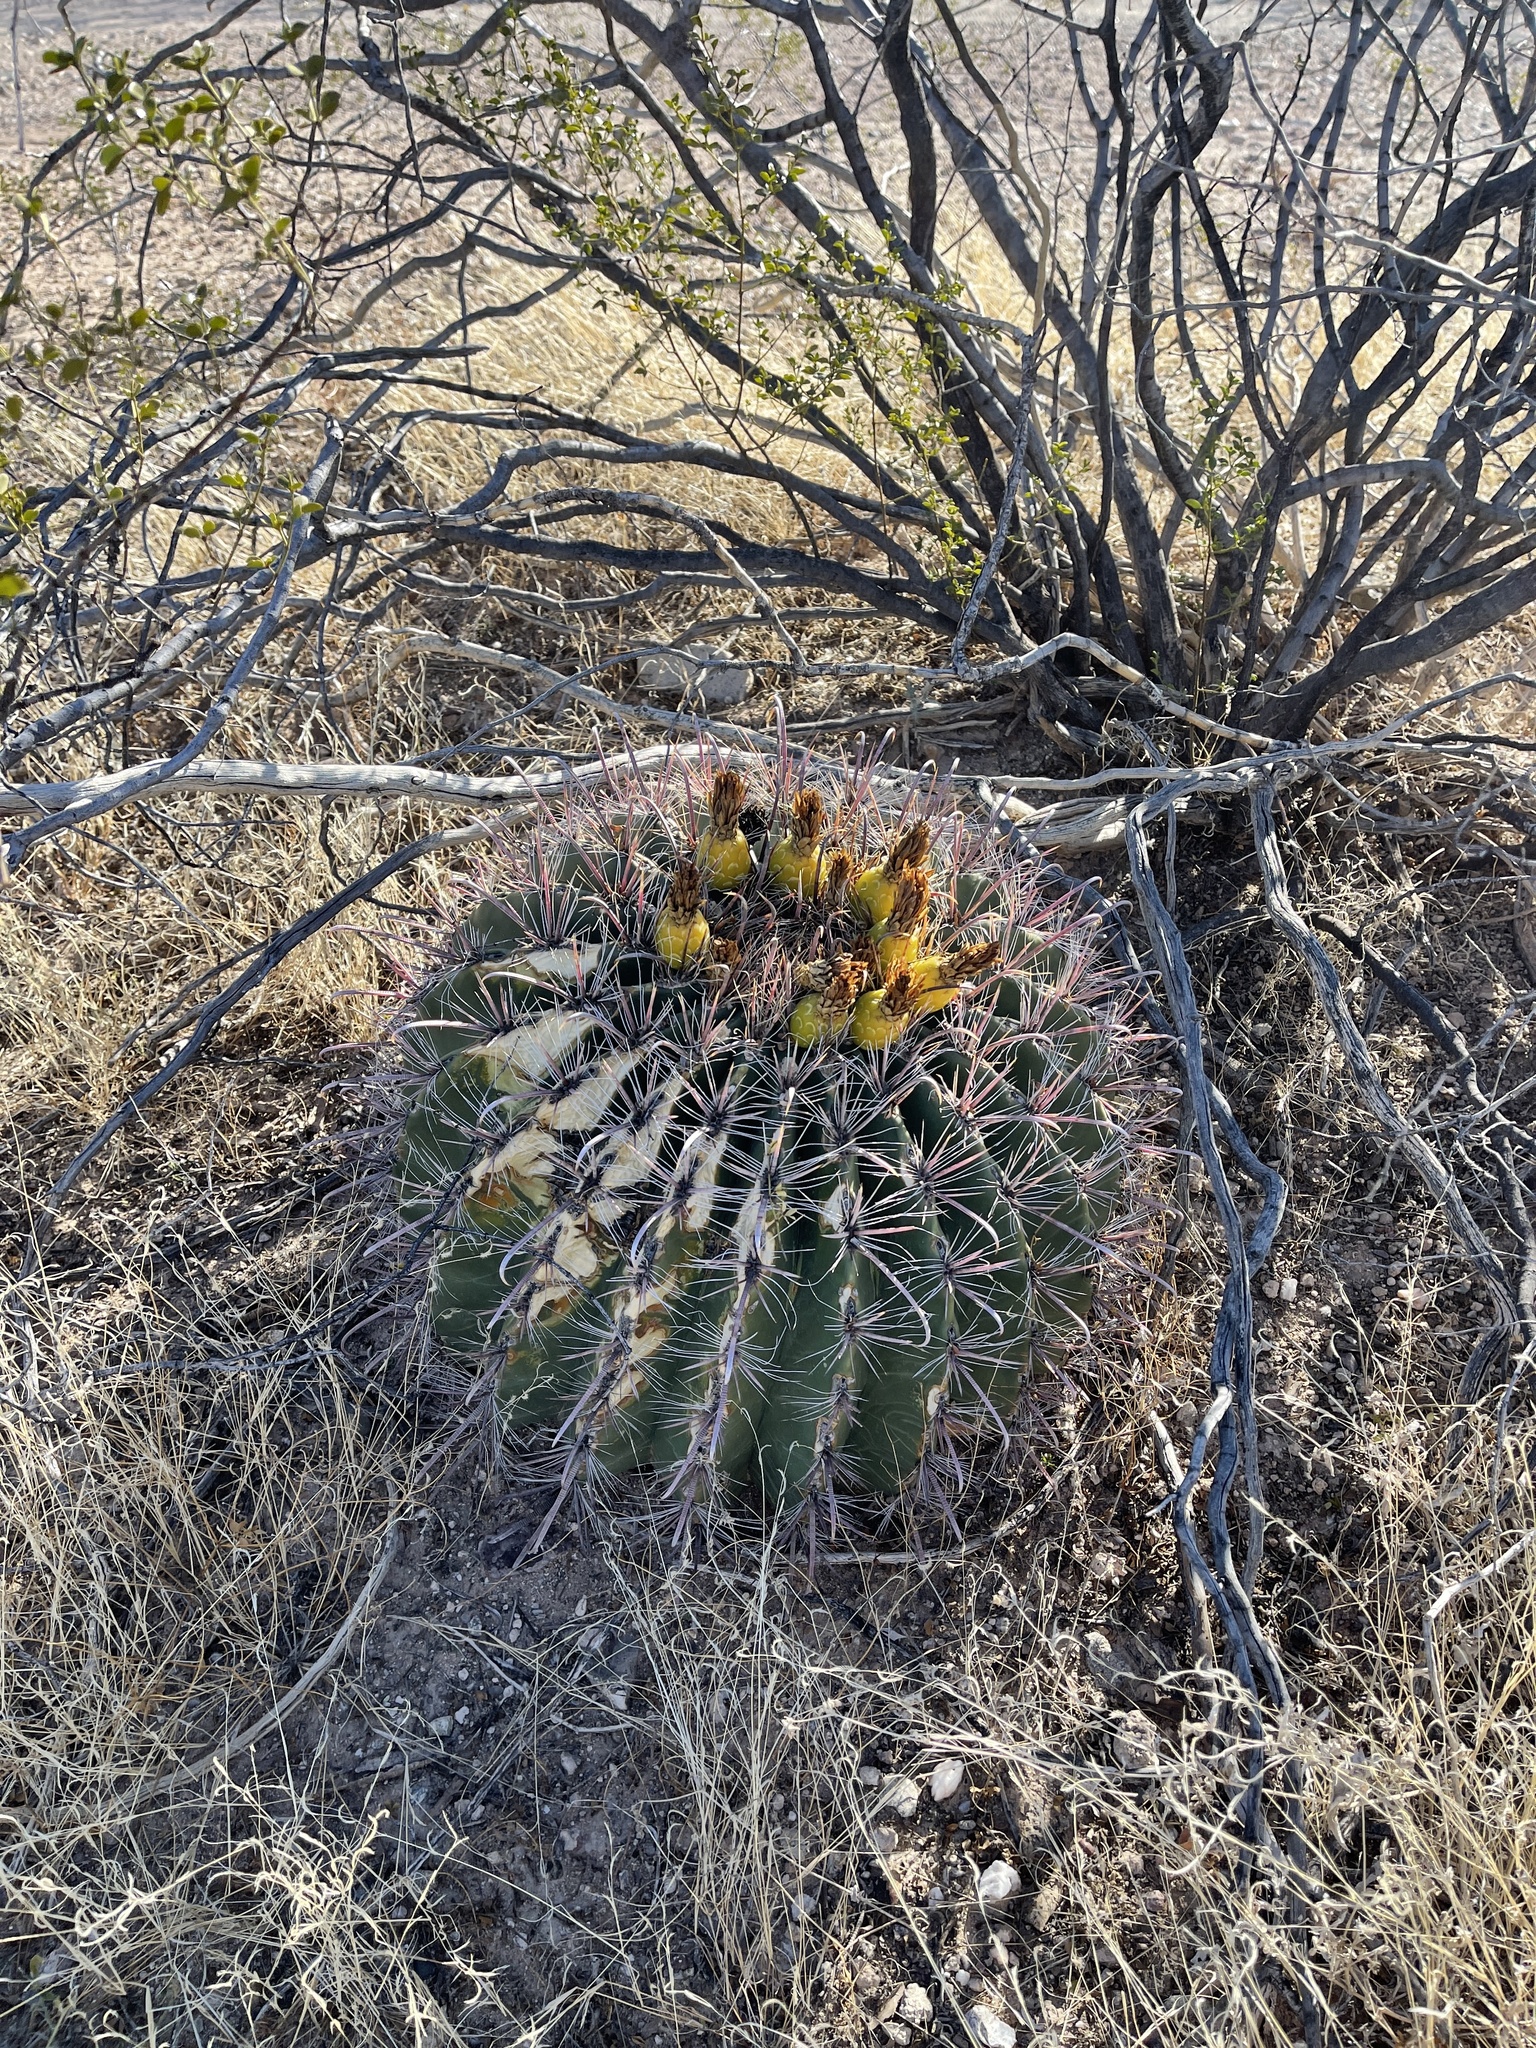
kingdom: Plantae
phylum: Tracheophyta
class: Magnoliopsida
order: Caryophyllales
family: Cactaceae
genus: Ferocactus
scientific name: Ferocactus wislizeni
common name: Candy barrel cactus
